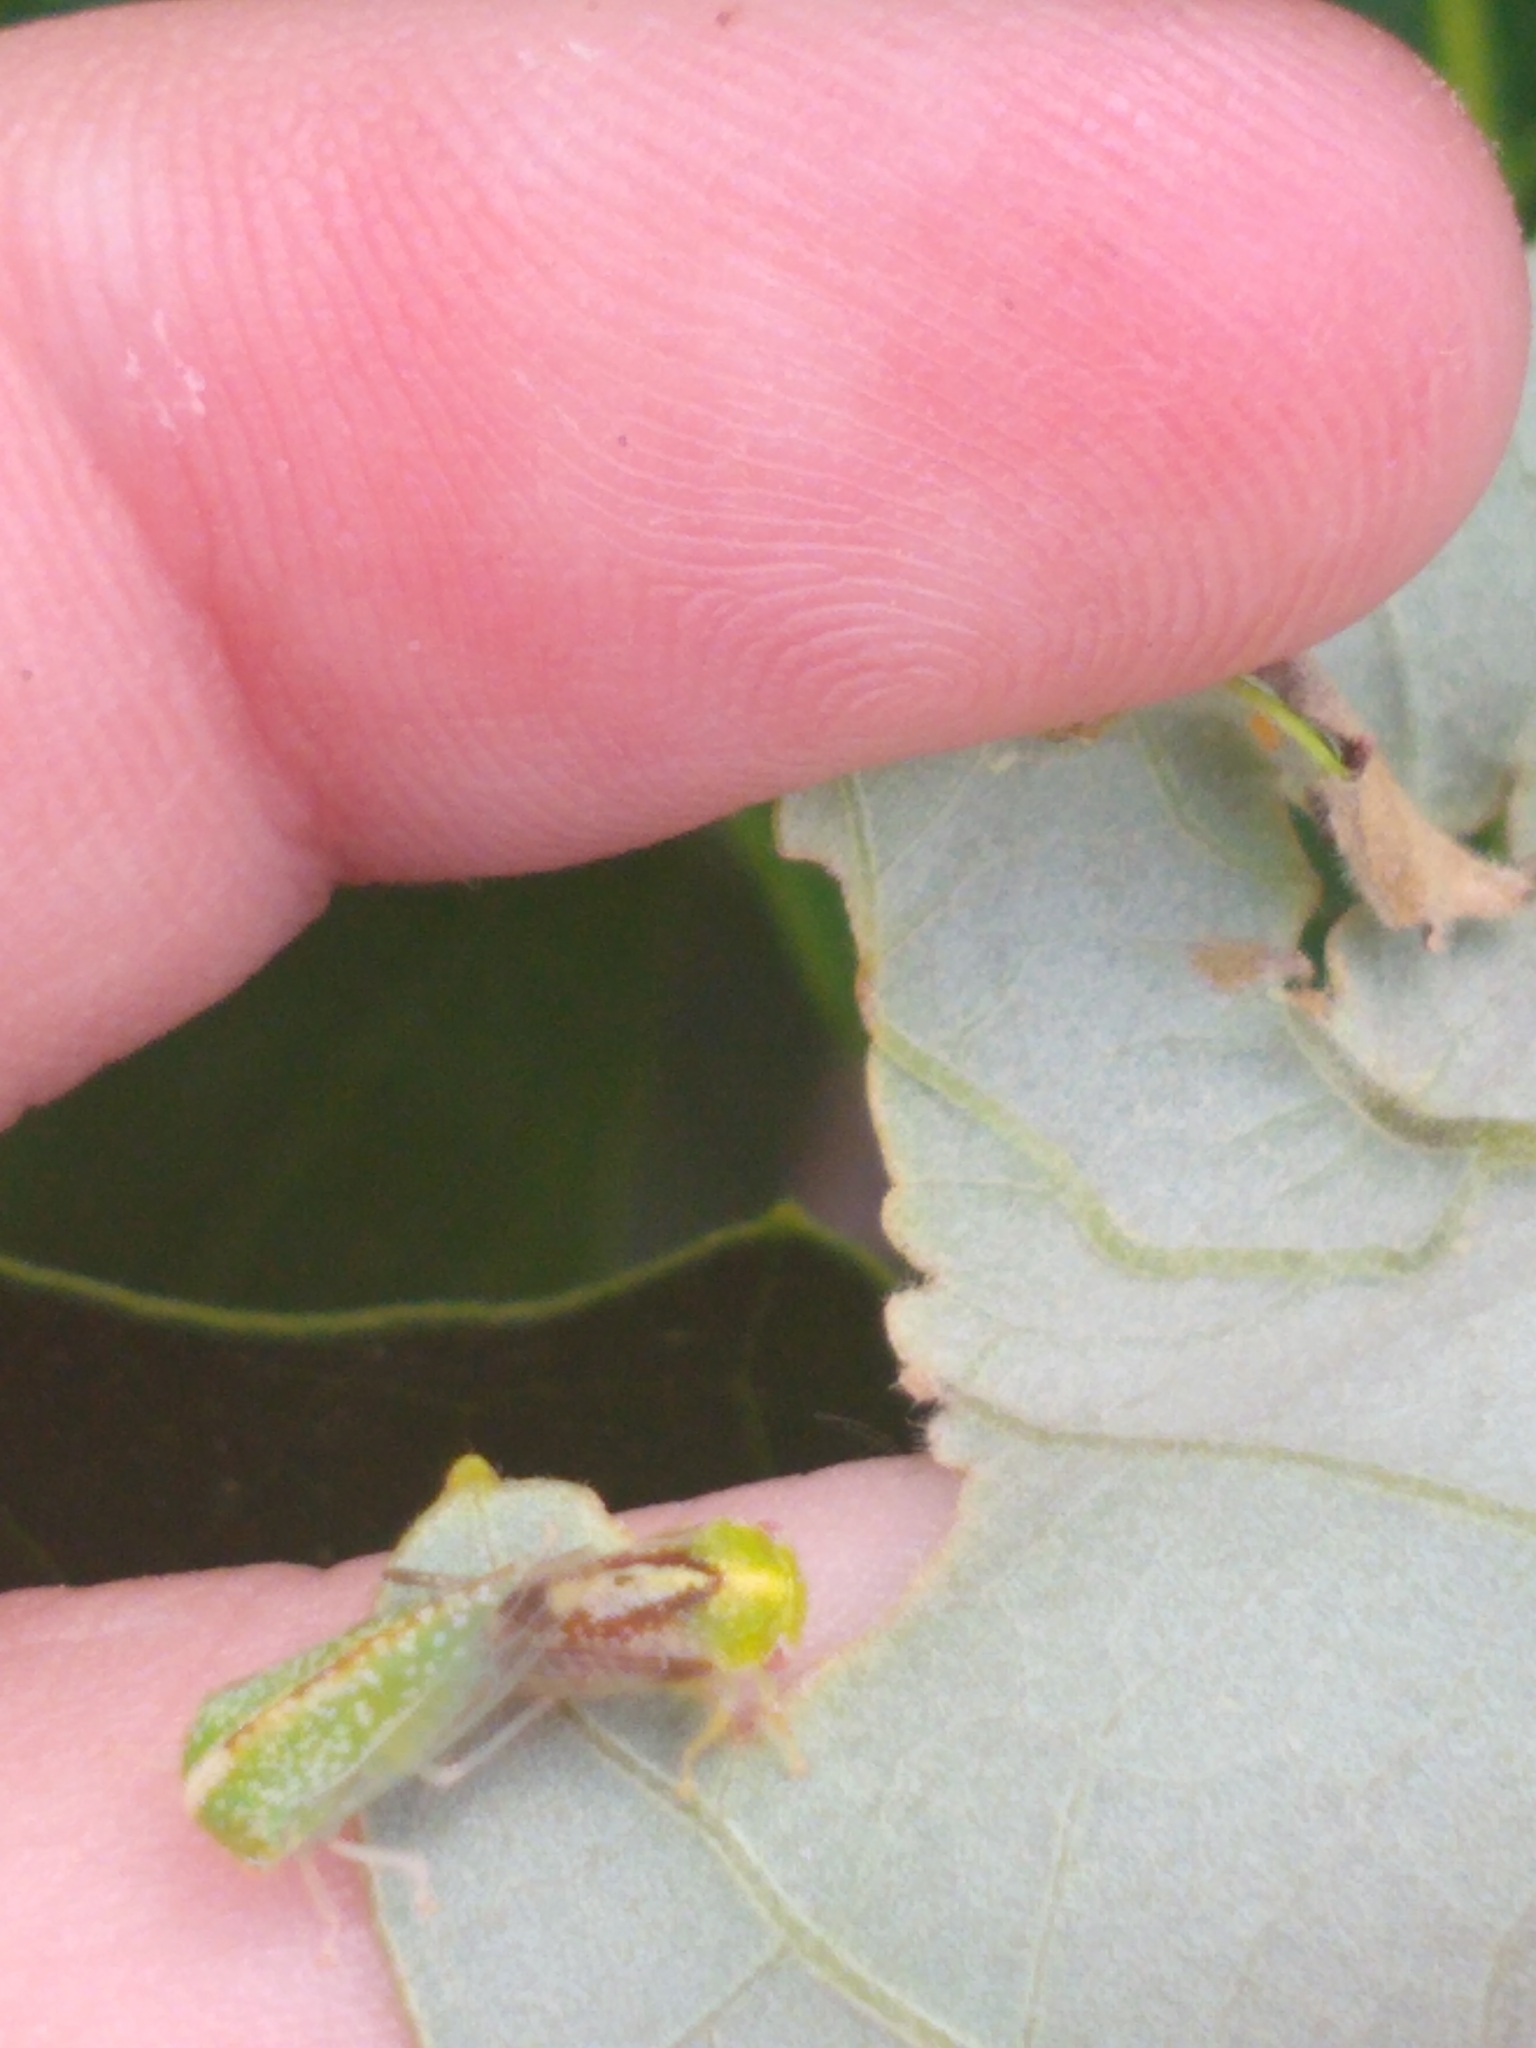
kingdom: Animalia
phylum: Arthropoda
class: Insecta
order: Hemiptera
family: Membracidae
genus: Atymna
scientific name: Atymna helena
